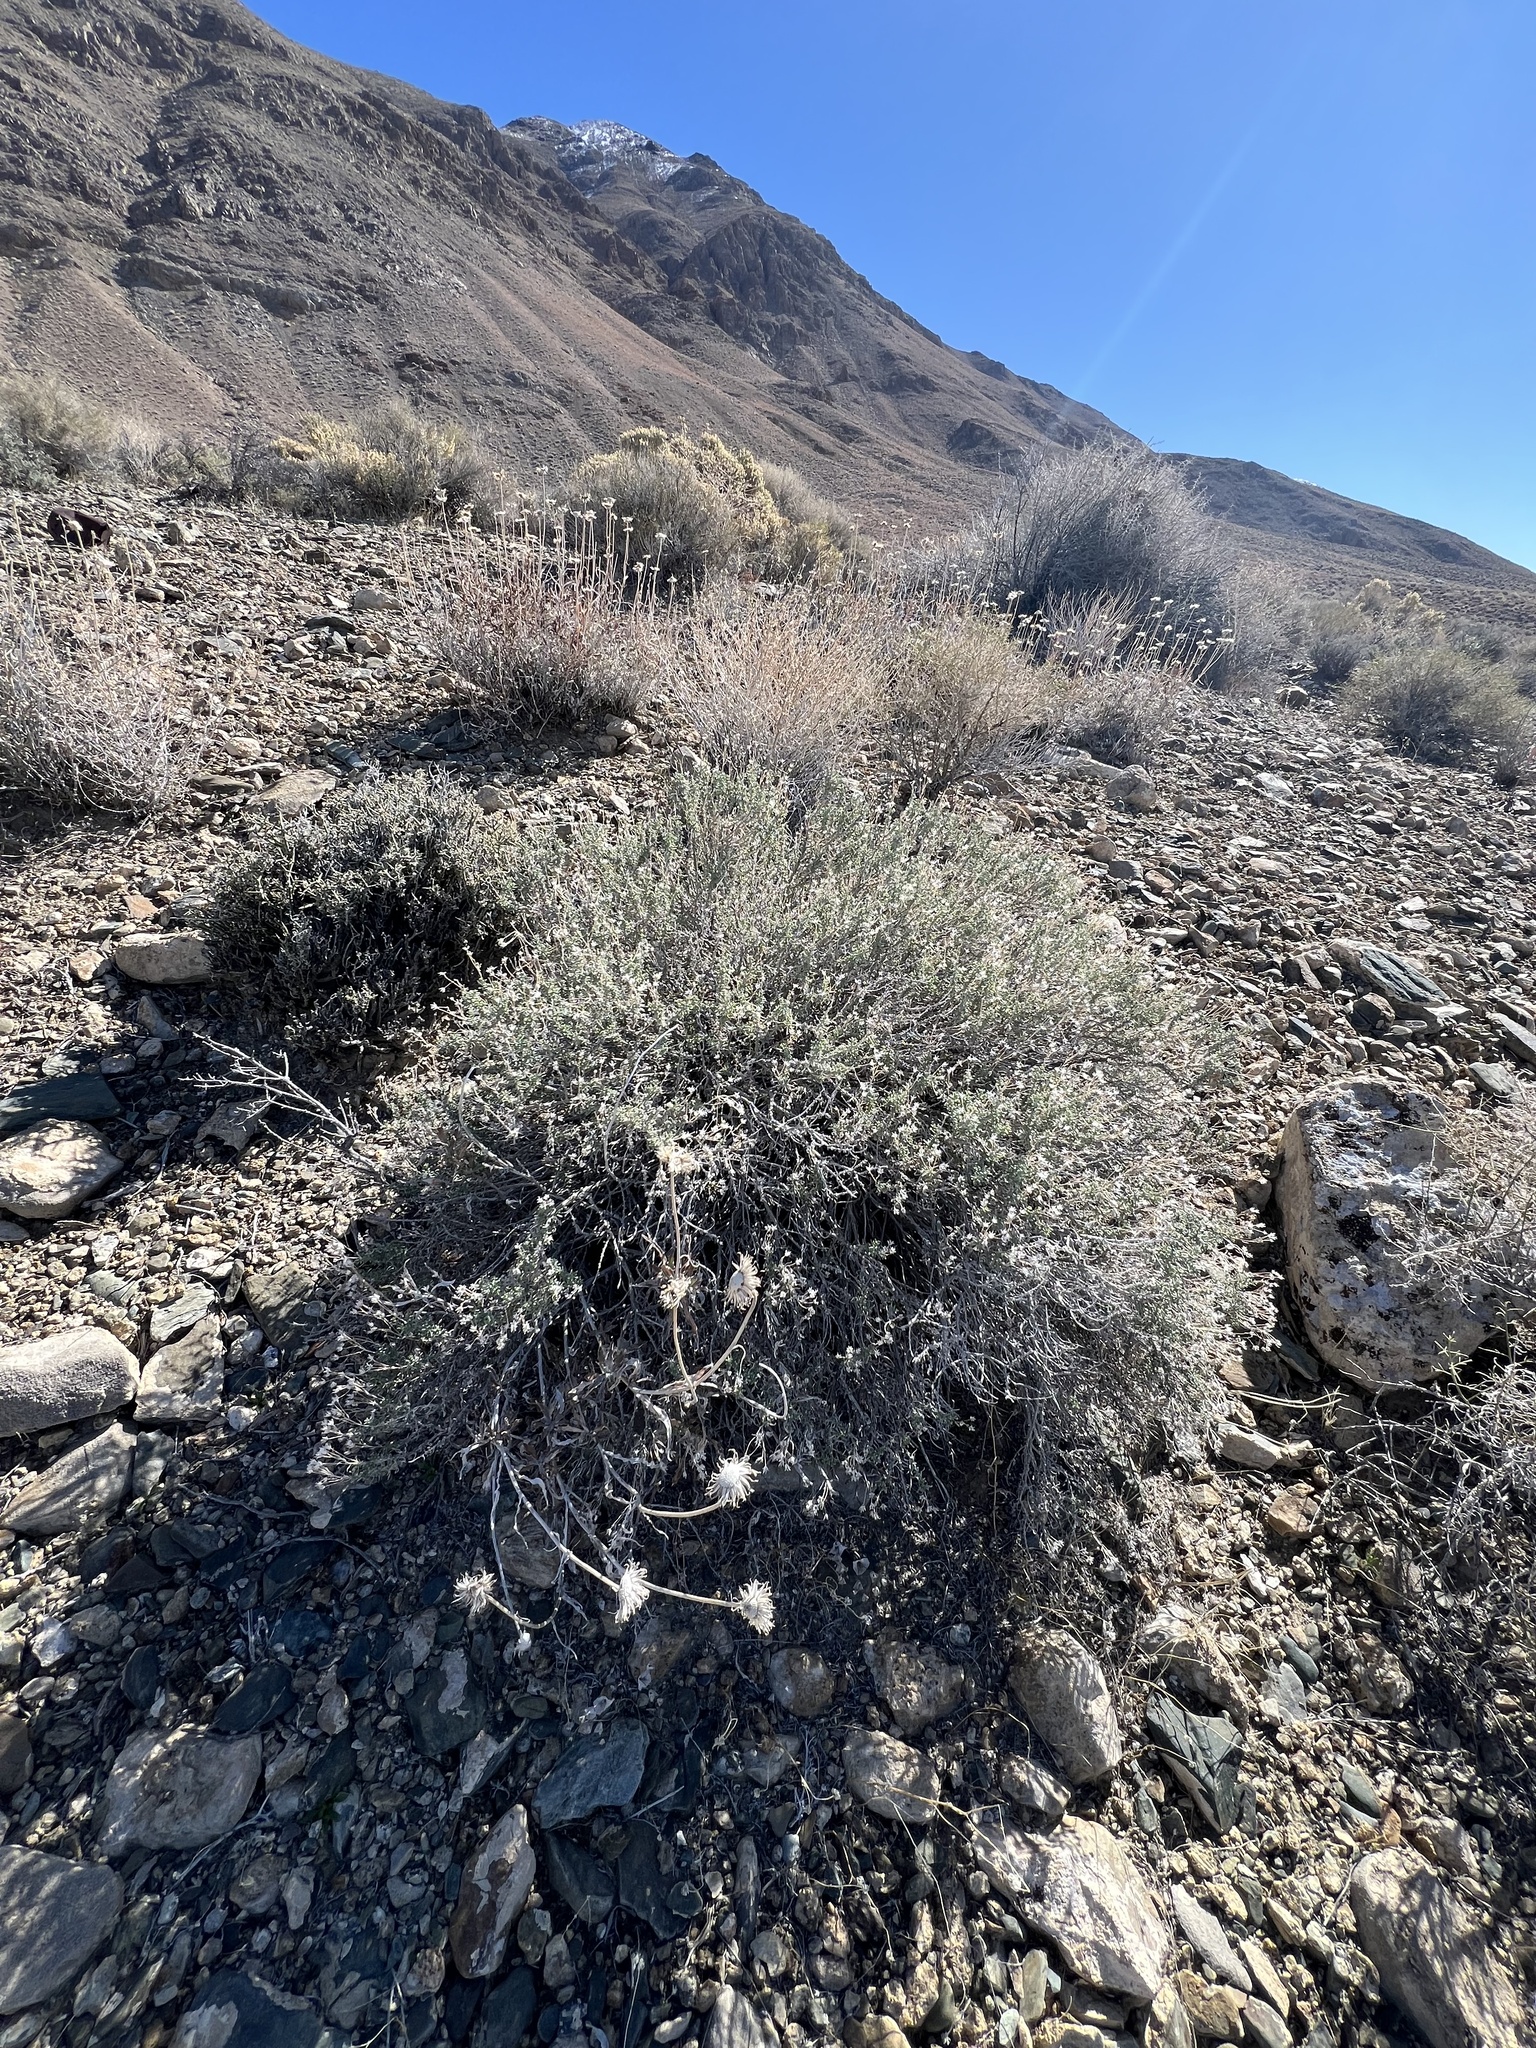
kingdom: Plantae
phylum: Tracheophyta
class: Magnoliopsida
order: Asterales
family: Asteraceae
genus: Ericameria
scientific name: Ericameria cooperi
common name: Cooper's goldenbush
